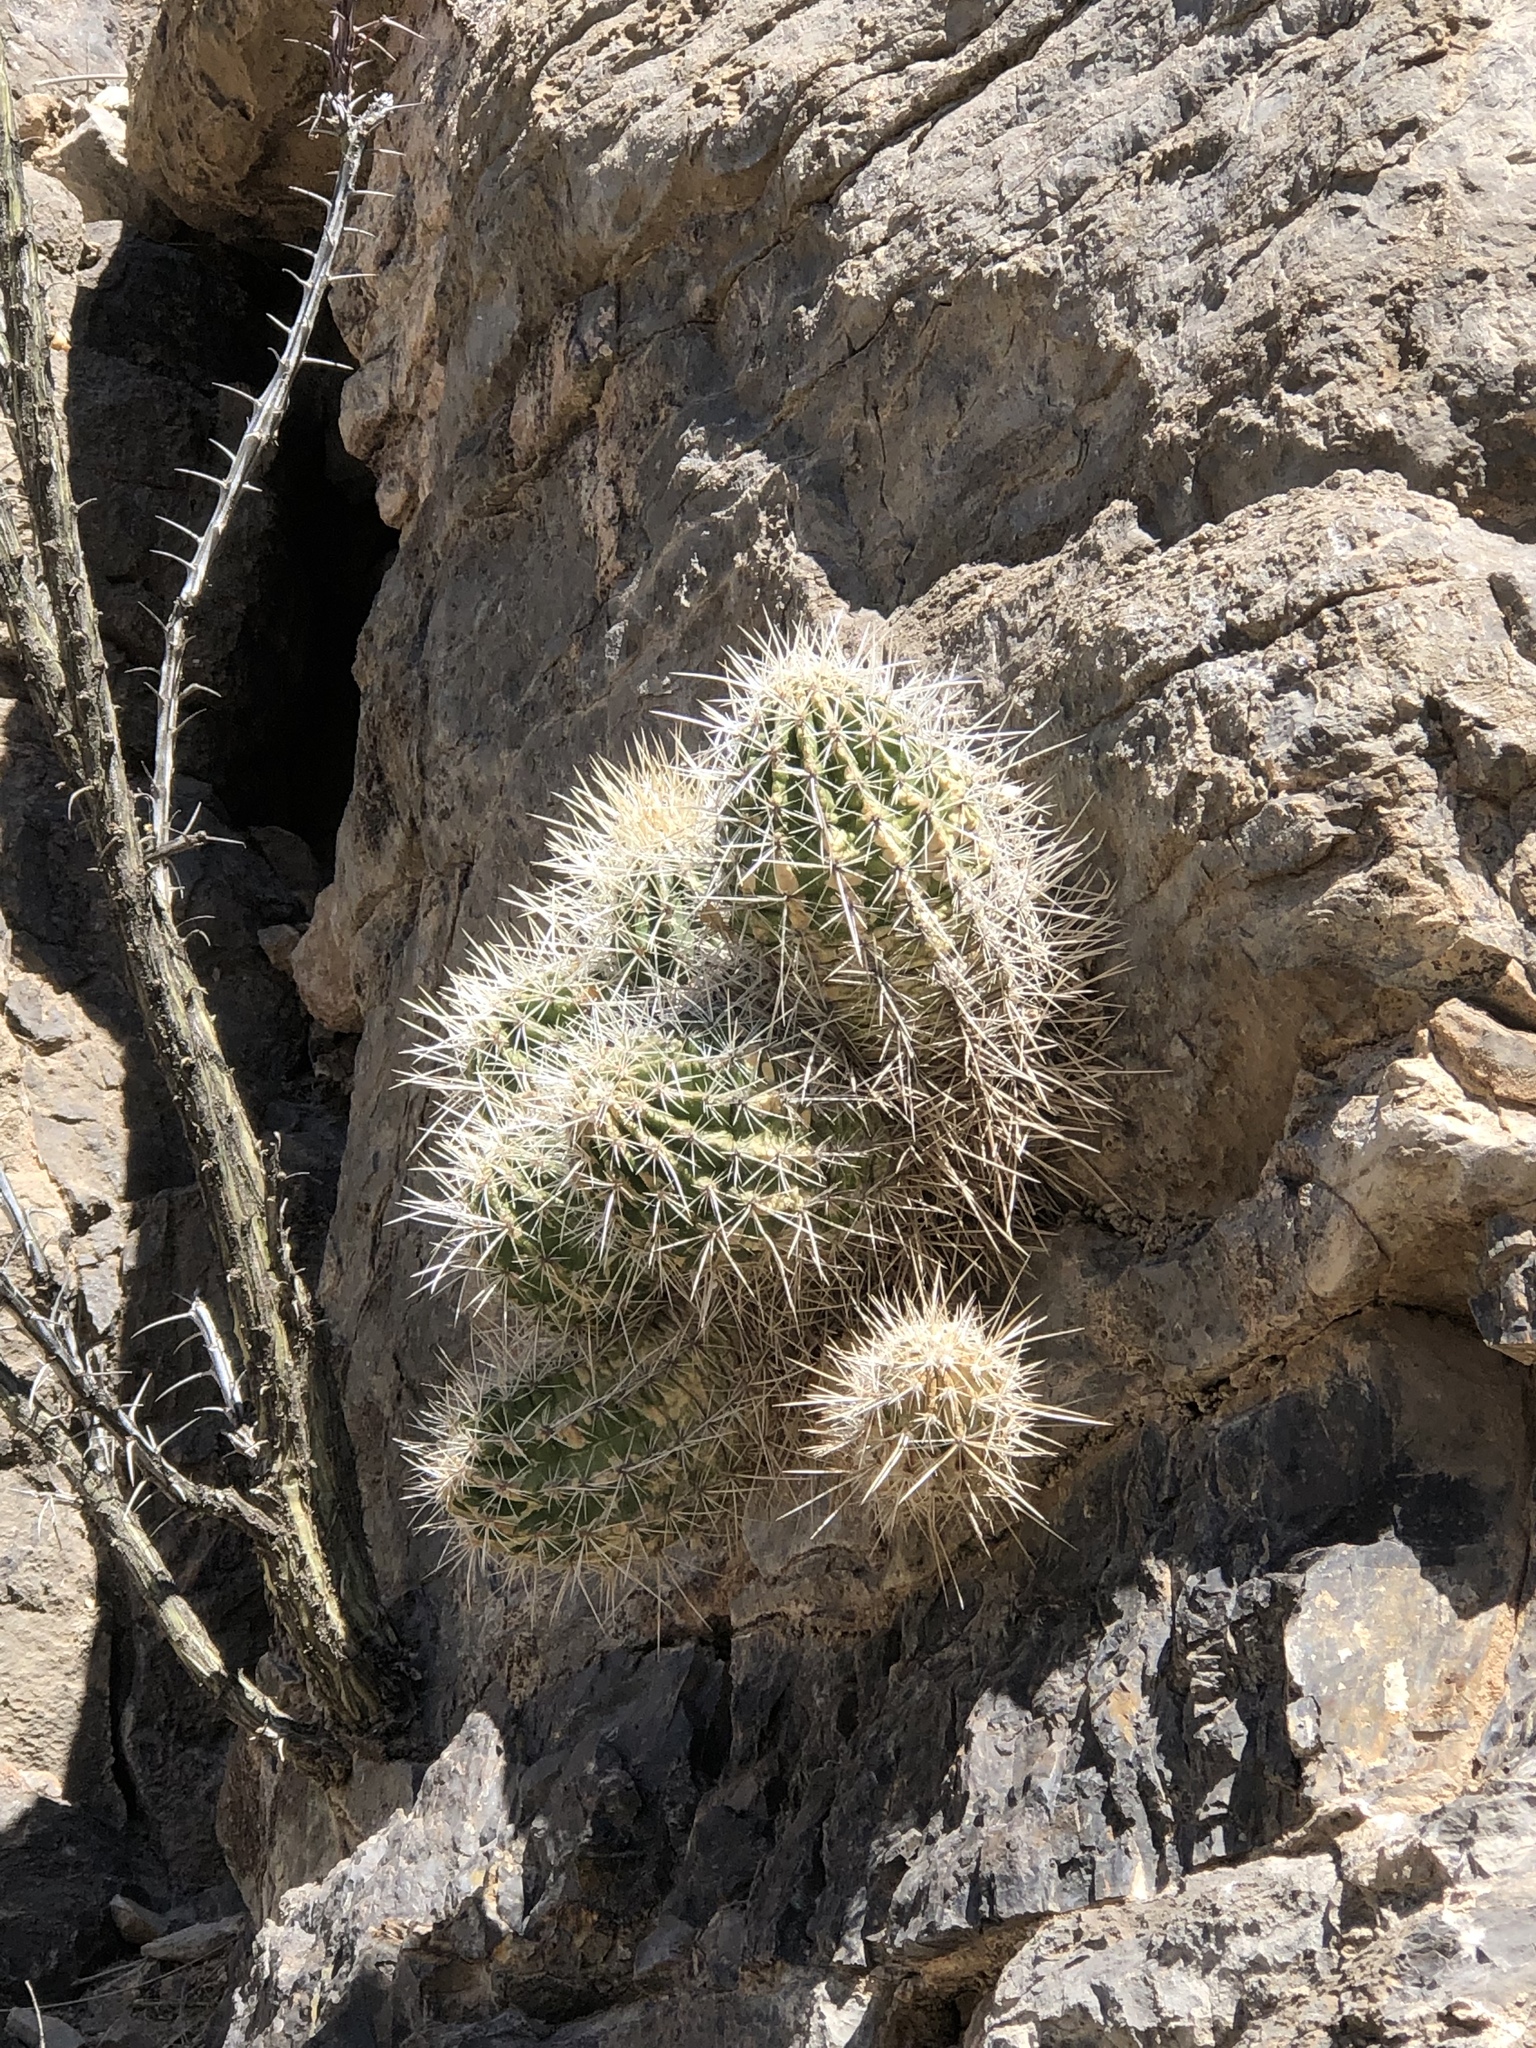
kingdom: Plantae
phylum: Tracheophyta
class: Magnoliopsida
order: Caryophyllales
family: Cactaceae
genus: Echinocereus
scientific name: Echinocereus coccineus
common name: Scarlet hedgehog cactus
